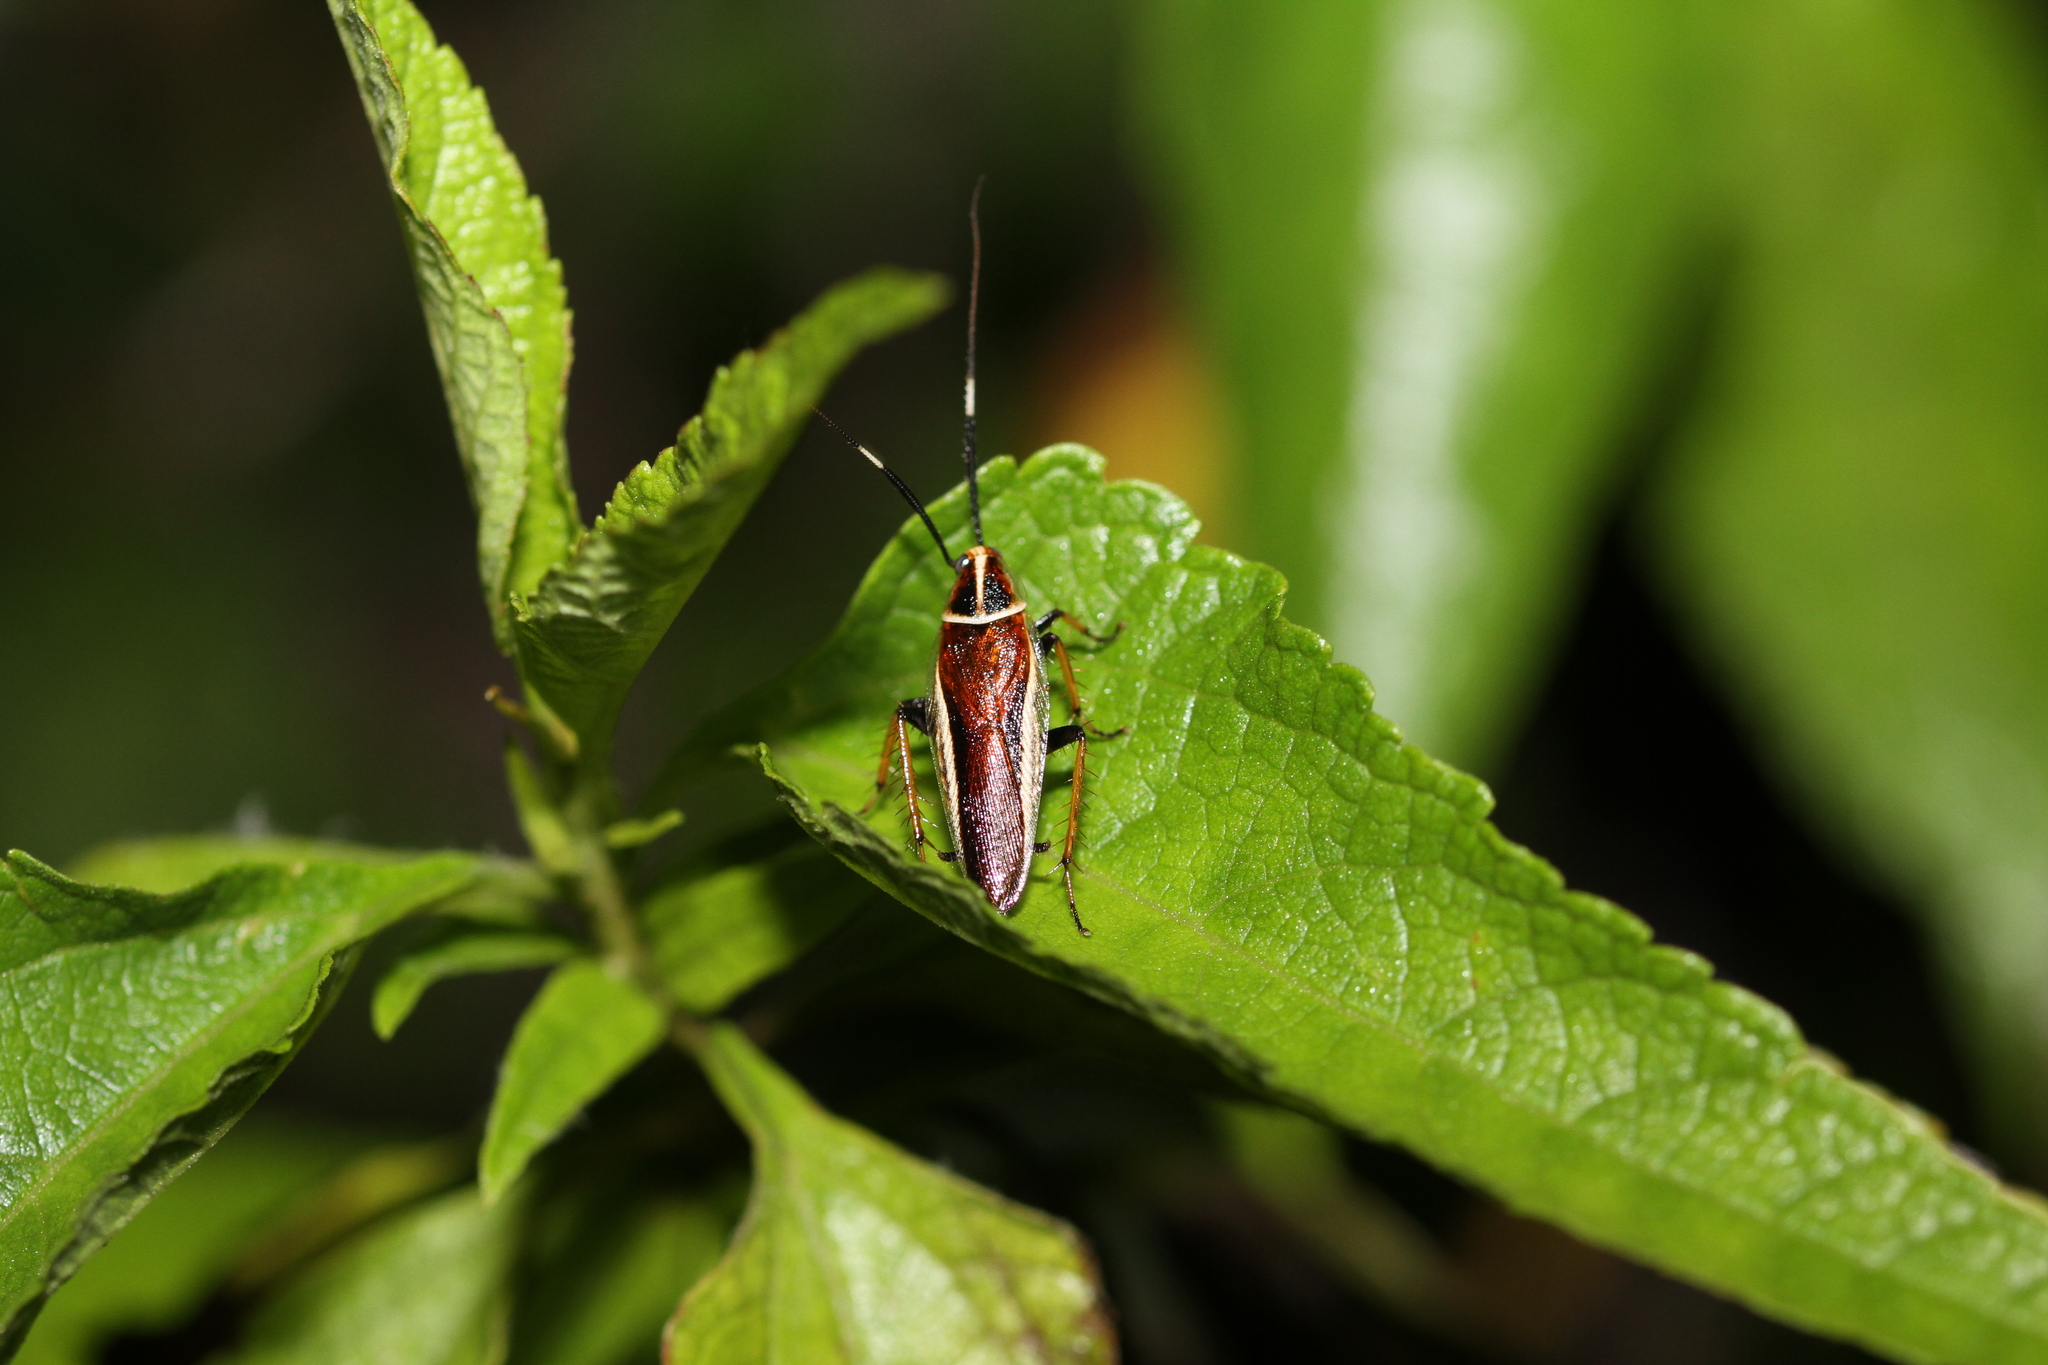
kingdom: Animalia
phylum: Arthropoda
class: Insecta
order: Blattodea
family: Ectobiidae
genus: Hemithyrsocera
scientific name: Hemithyrsocera histrio
